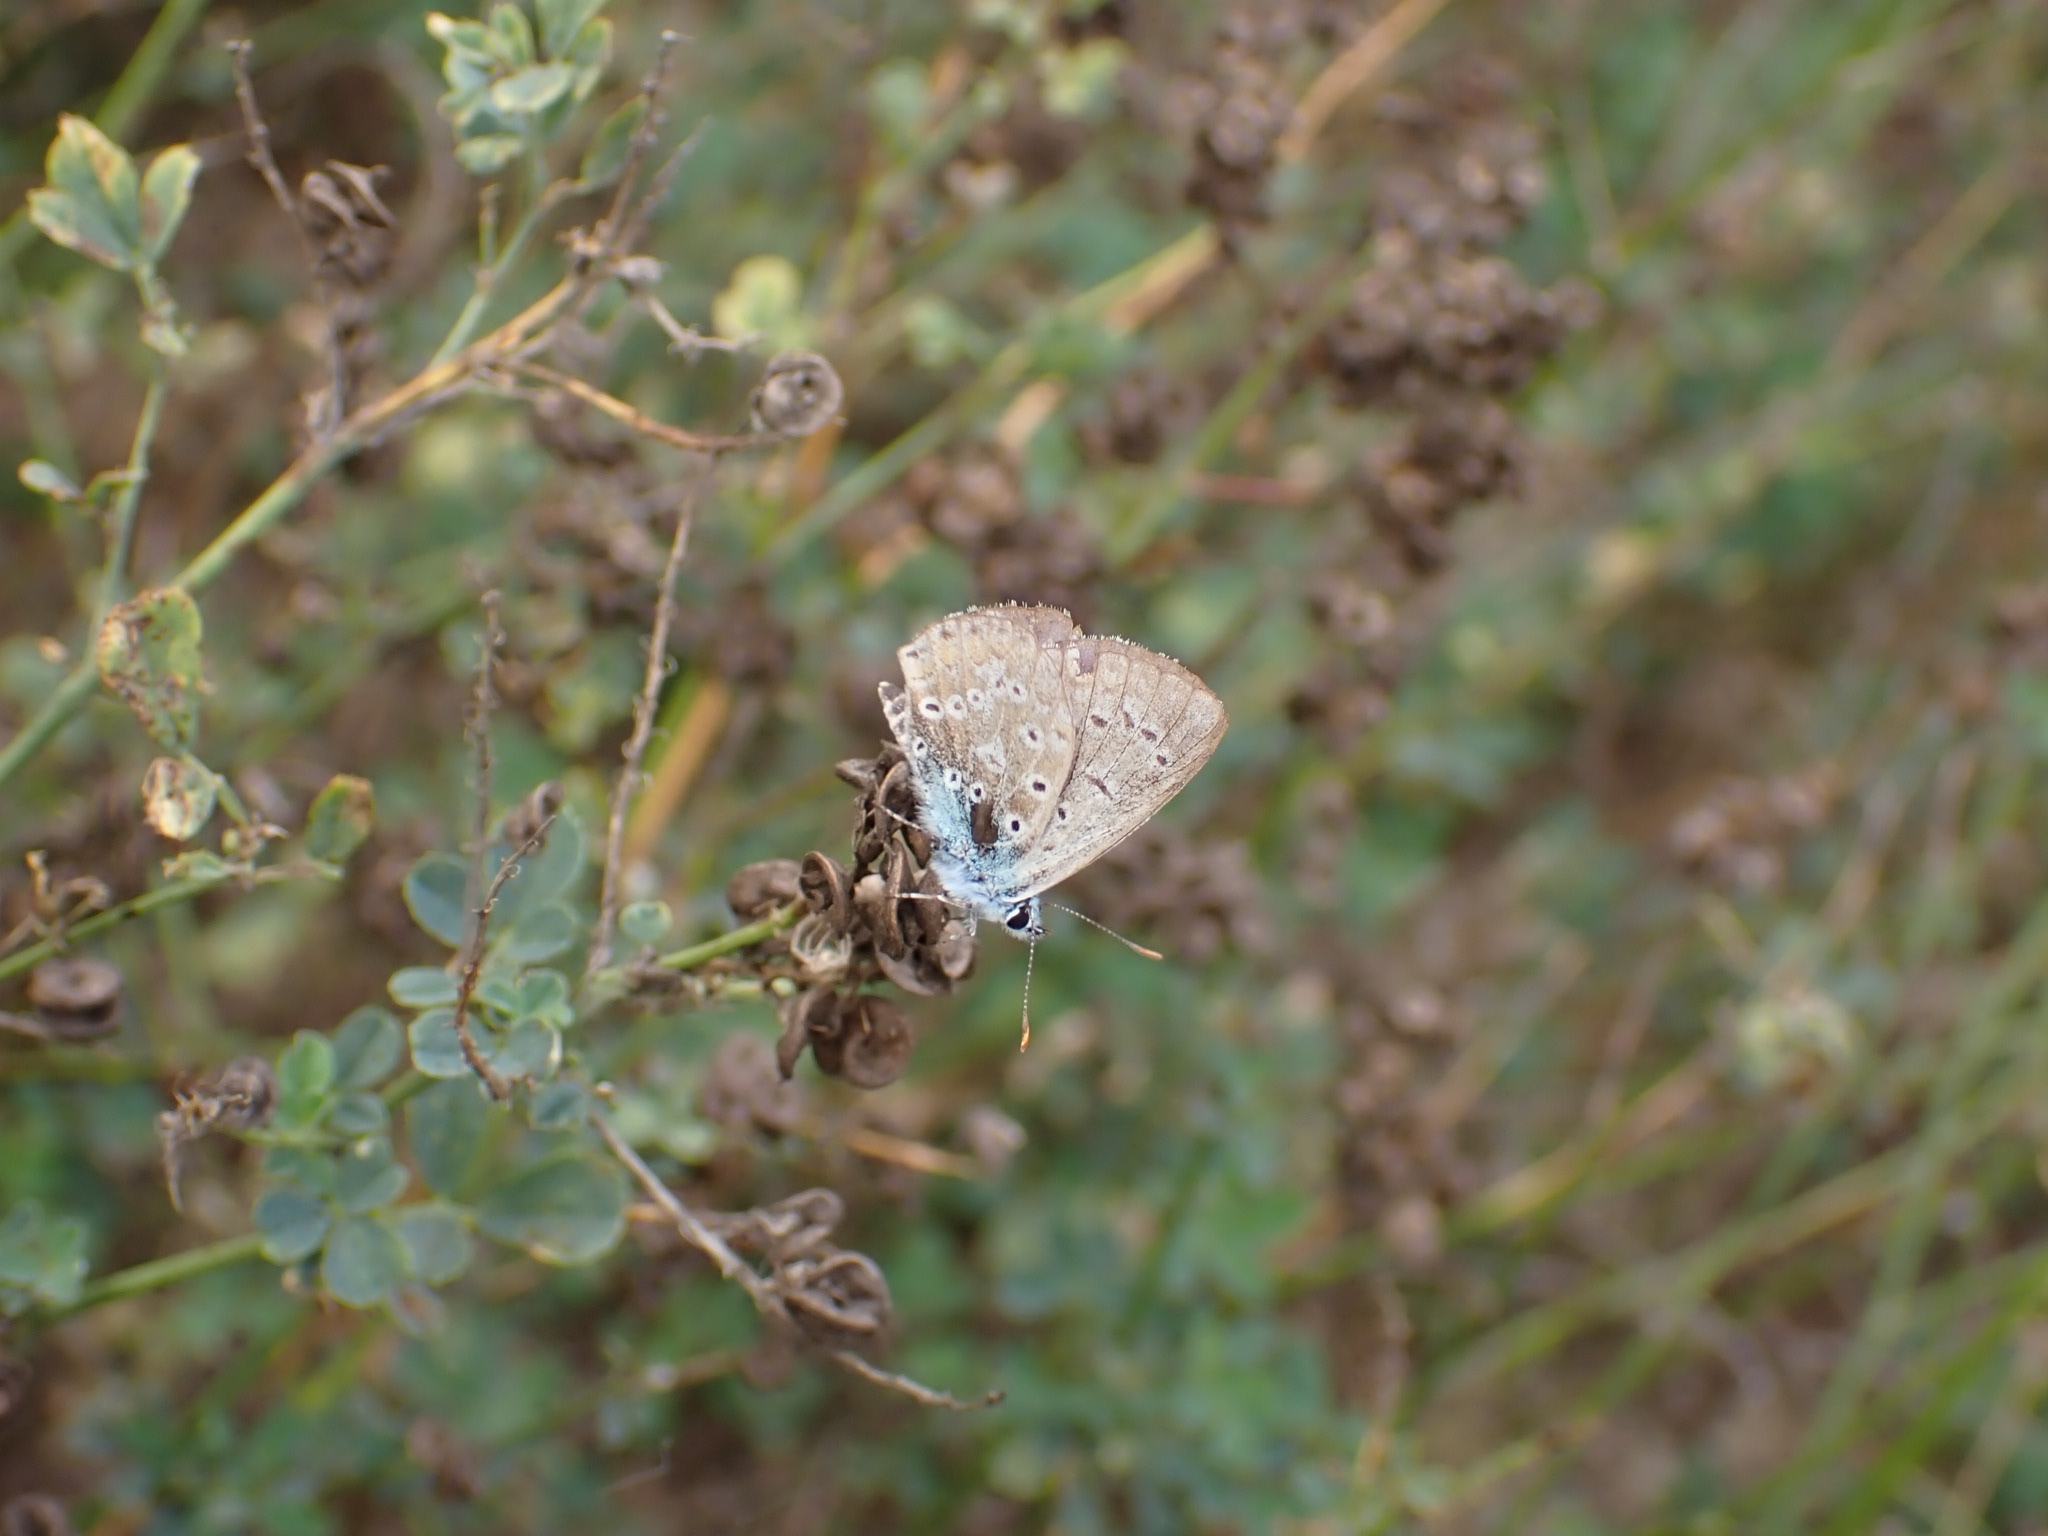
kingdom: Animalia
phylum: Arthropoda
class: Insecta
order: Lepidoptera
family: Lycaenidae
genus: Polyommatus
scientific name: Polyommatus icarus
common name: Common blue
